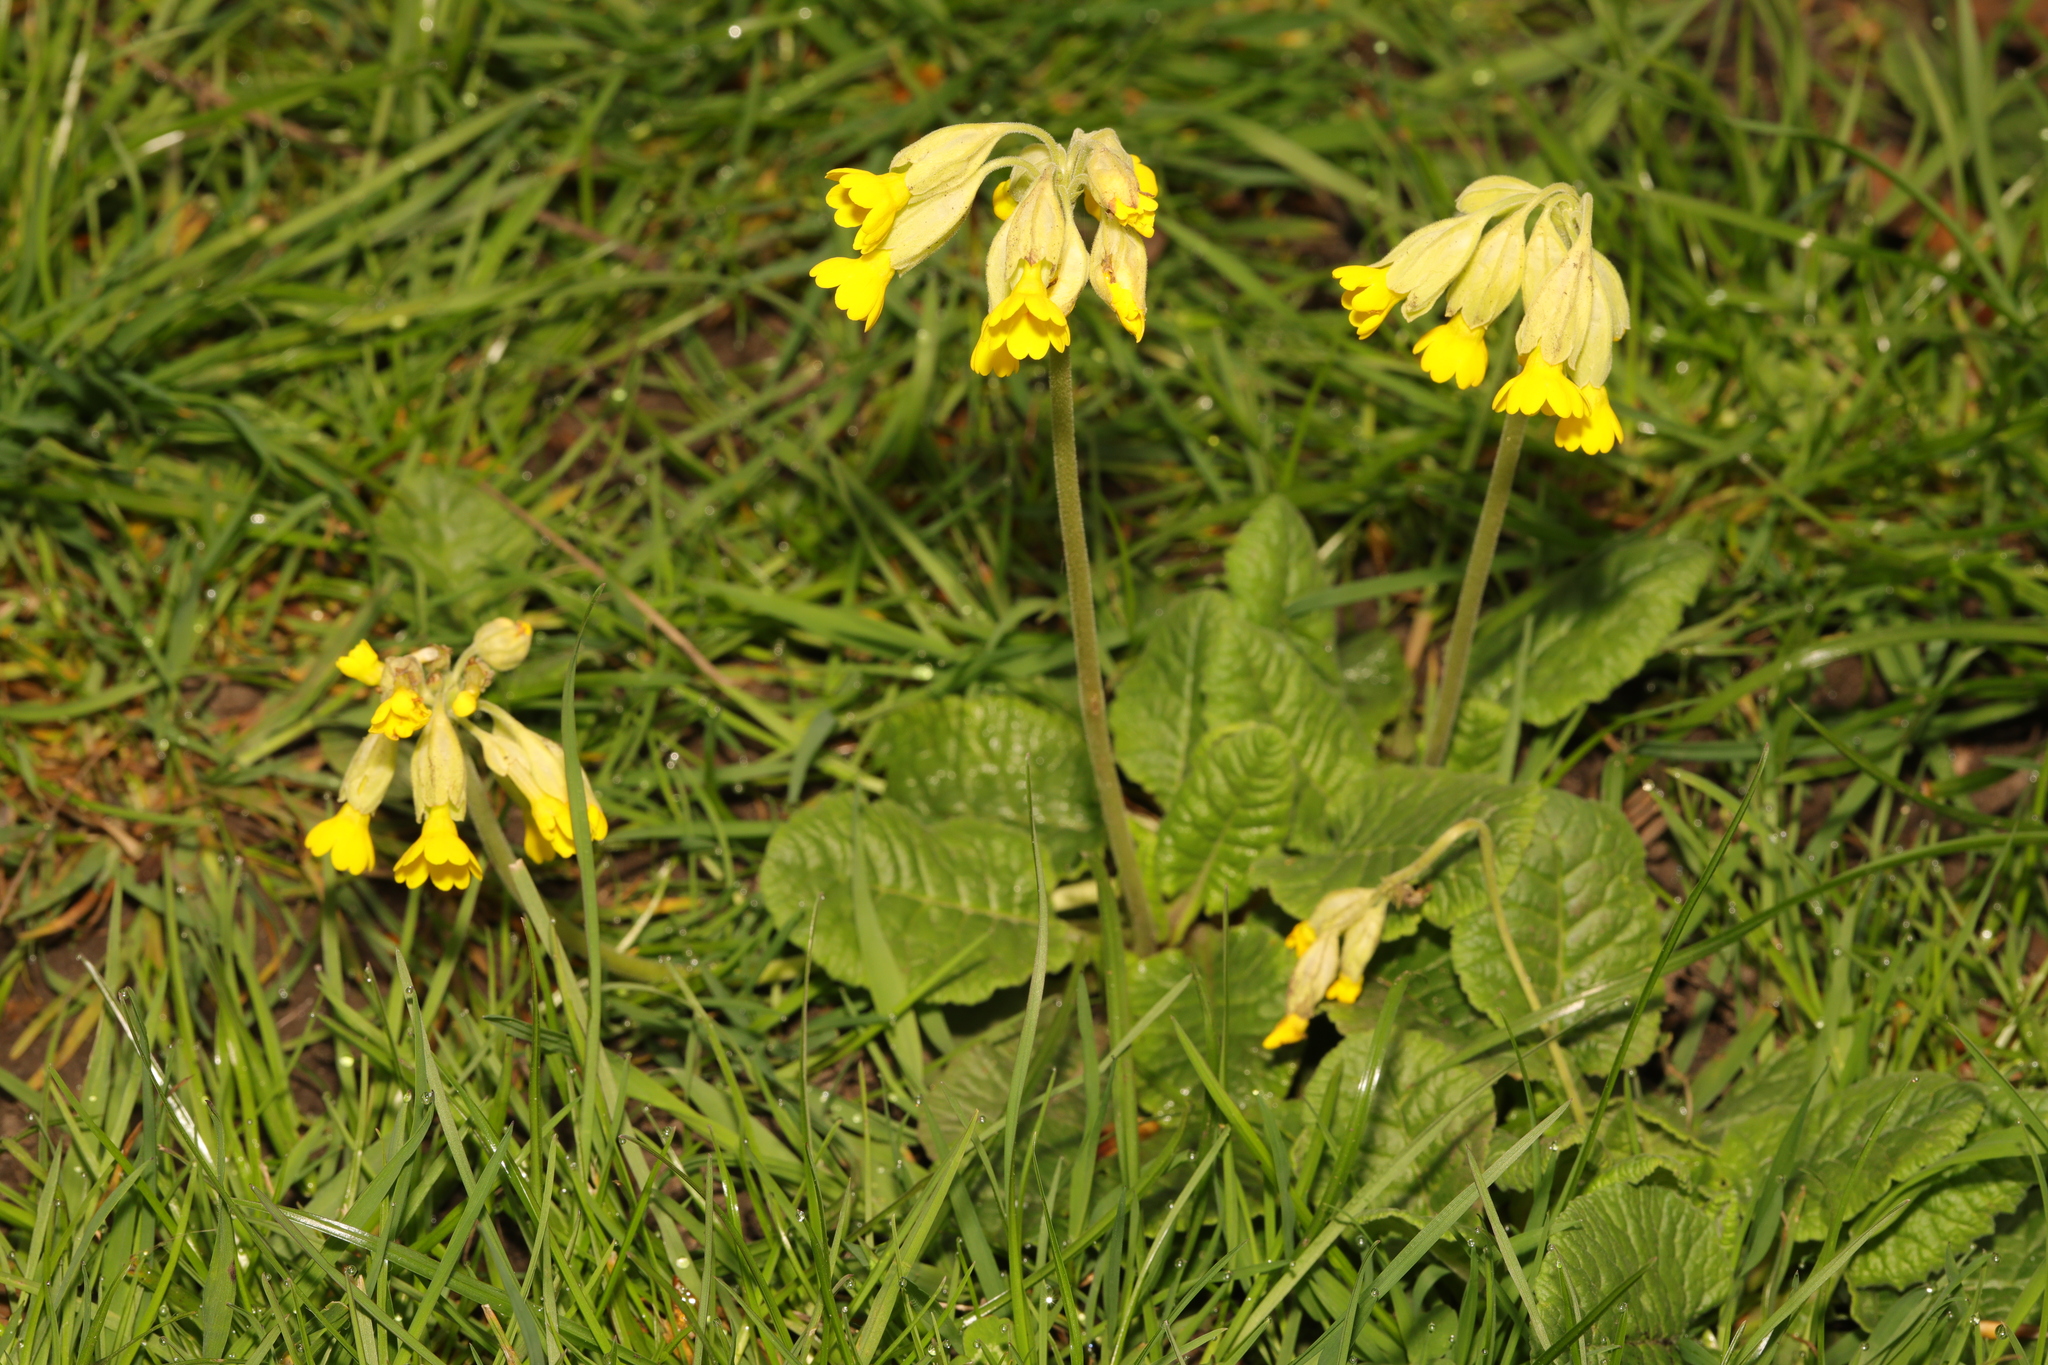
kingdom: Plantae
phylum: Tracheophyta
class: Magnoliopsida
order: Ericales
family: Primulaceae
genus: Primula
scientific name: Primula veris
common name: Cowslip
